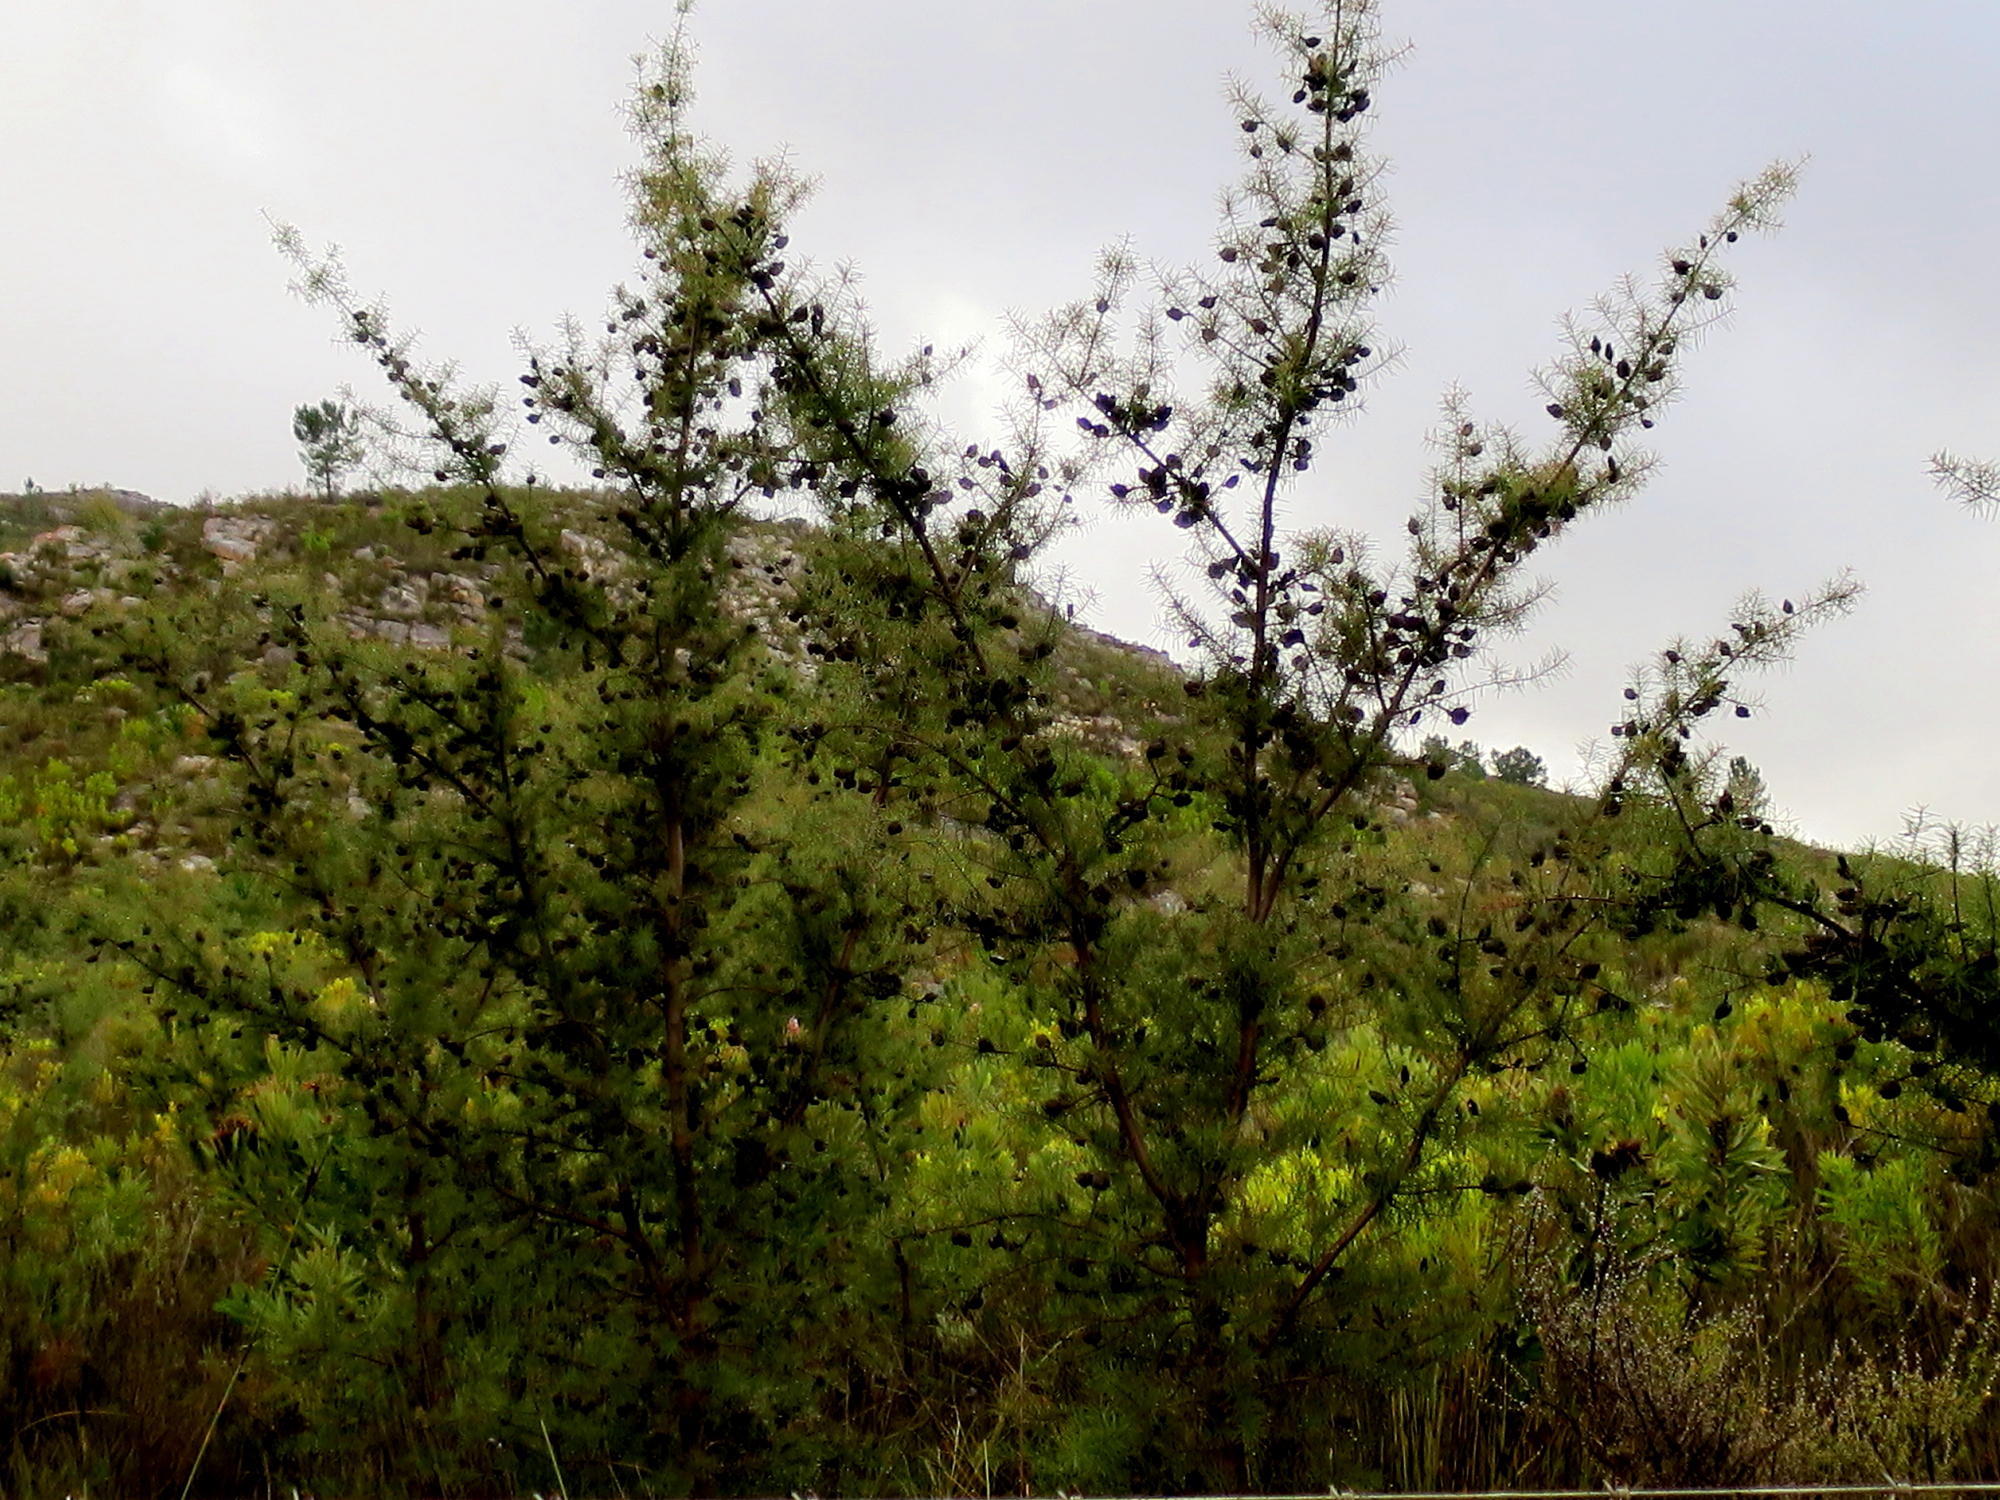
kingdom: Plantae
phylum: Tracheophyta
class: Magnoliopsida
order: Proteales
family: Proteaceae
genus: Hakea
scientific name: Hakea sericea
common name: Needle bush
